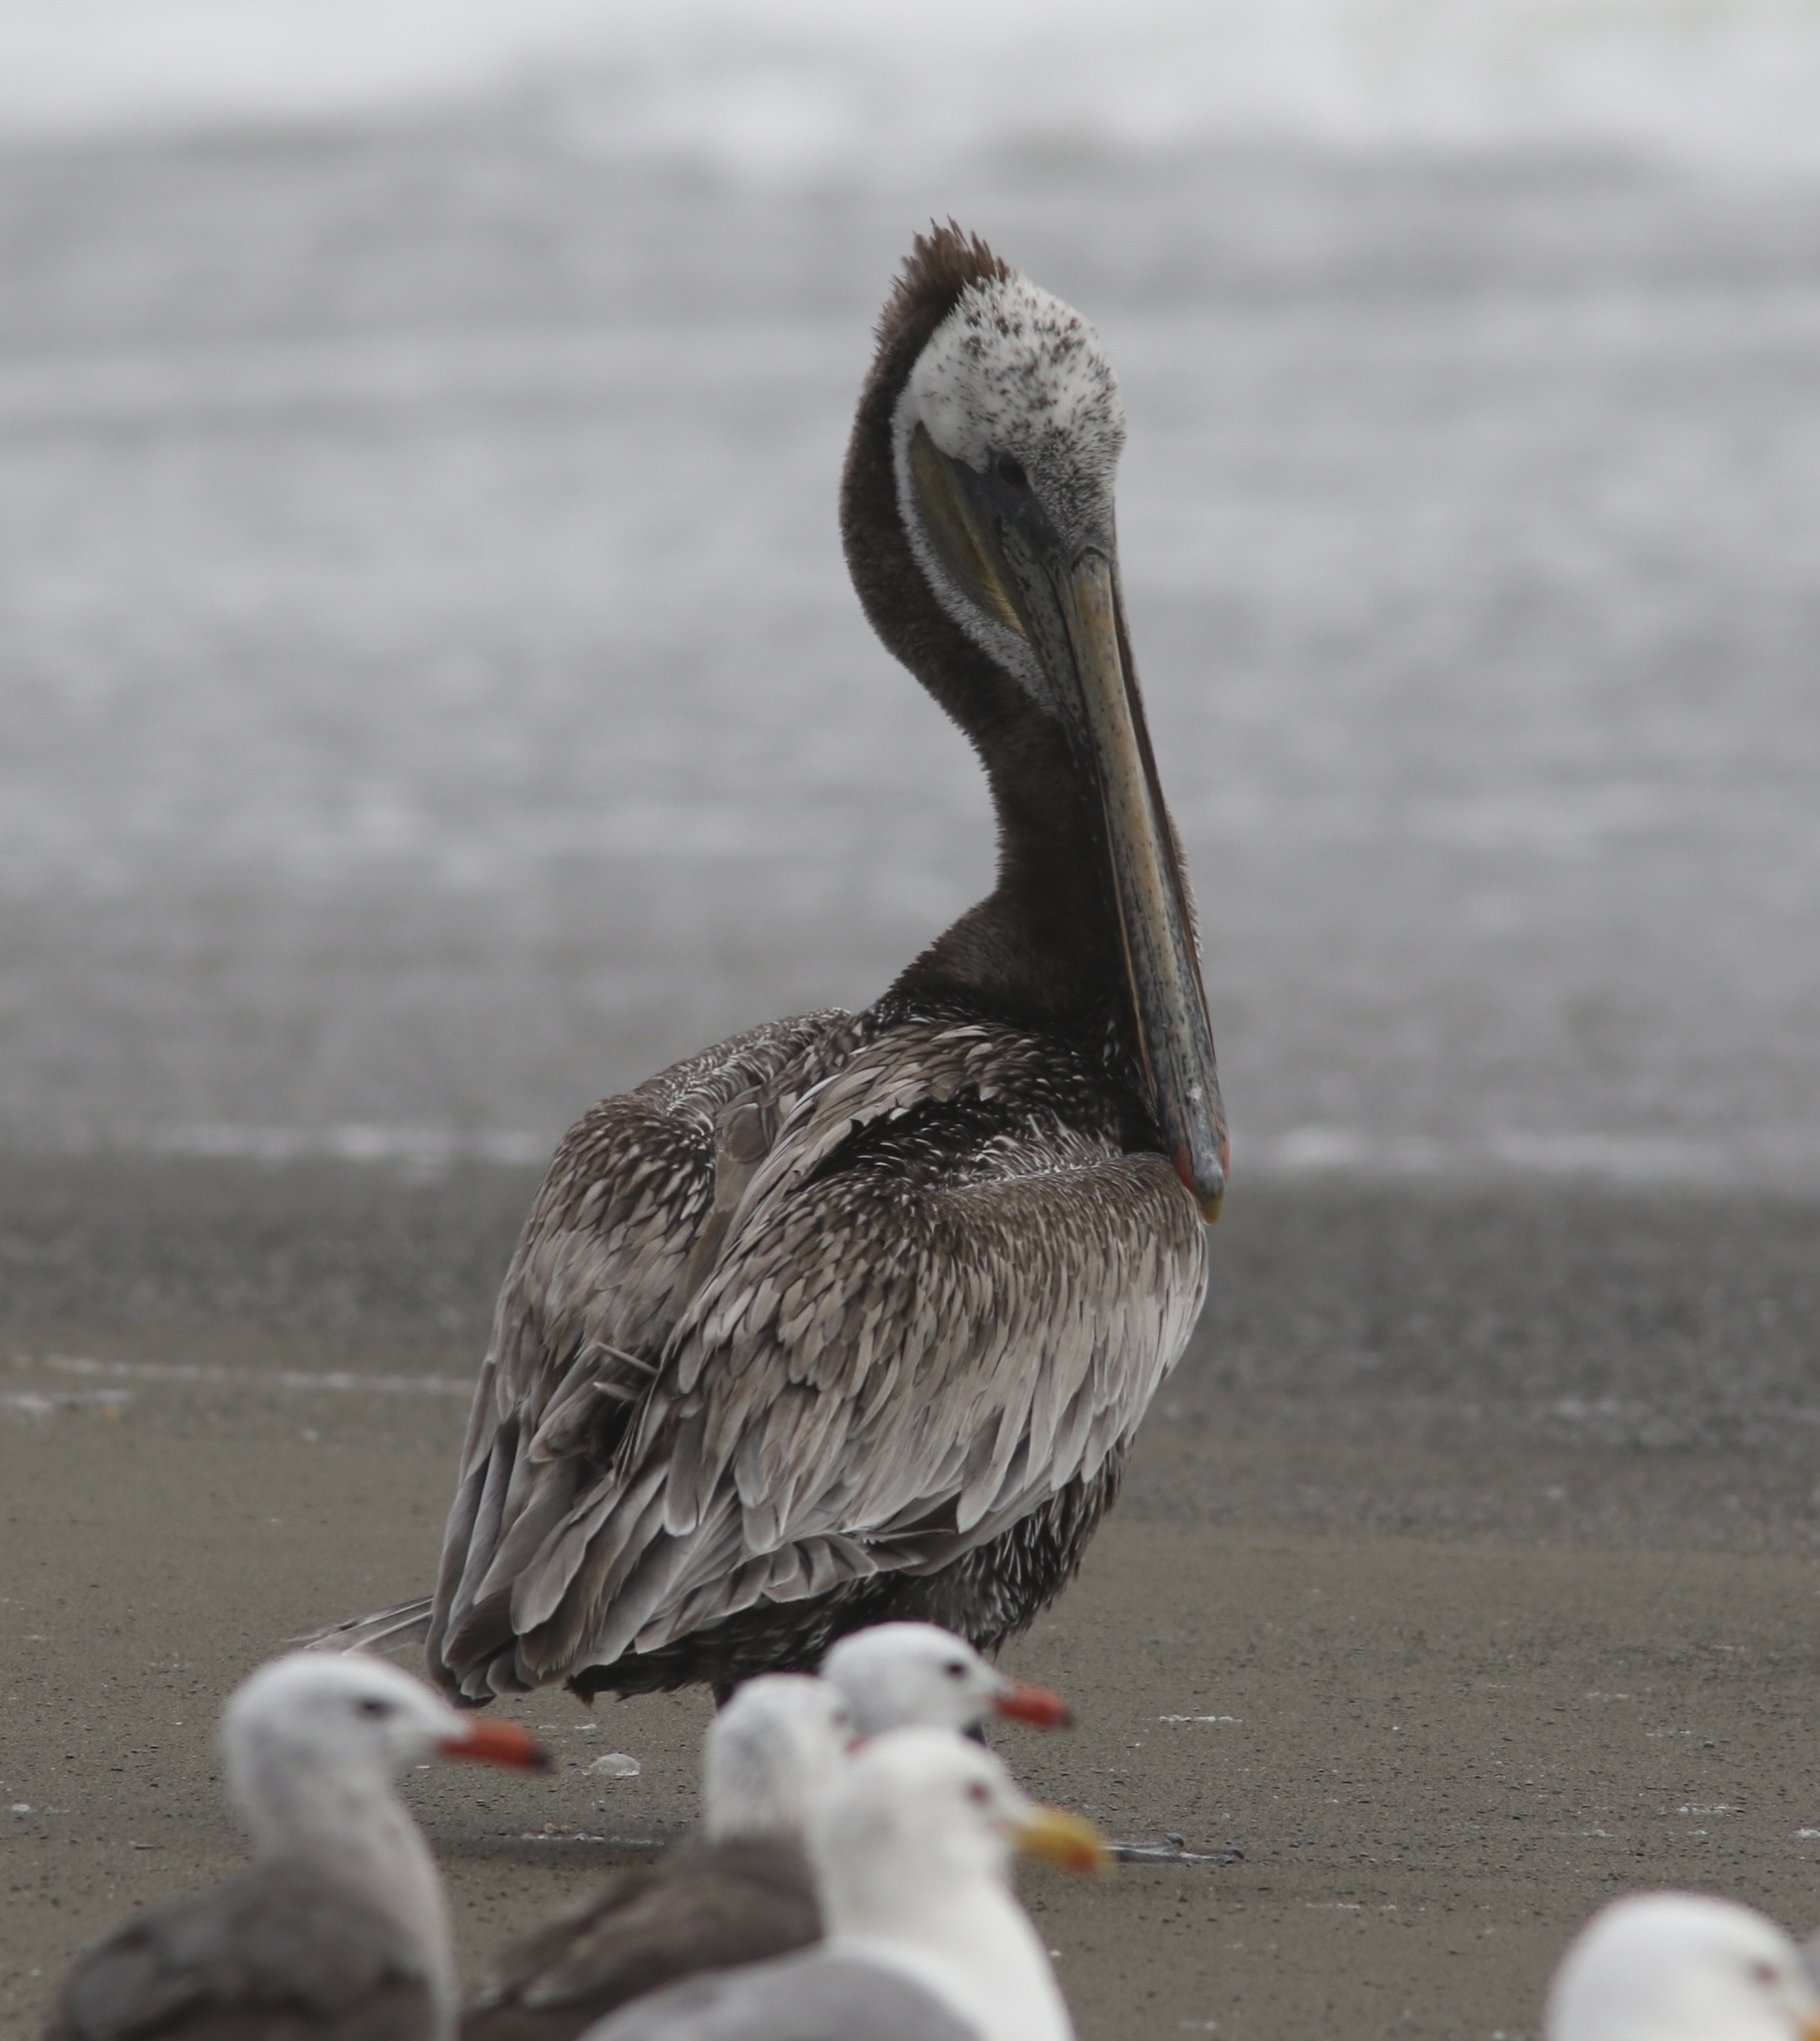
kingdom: Animalia
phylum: Chordata
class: Aves
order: Pelecaniformes
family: Pelecanidae
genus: Pelecanus
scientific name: Pelecanus occidentalis
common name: Brown pelican
